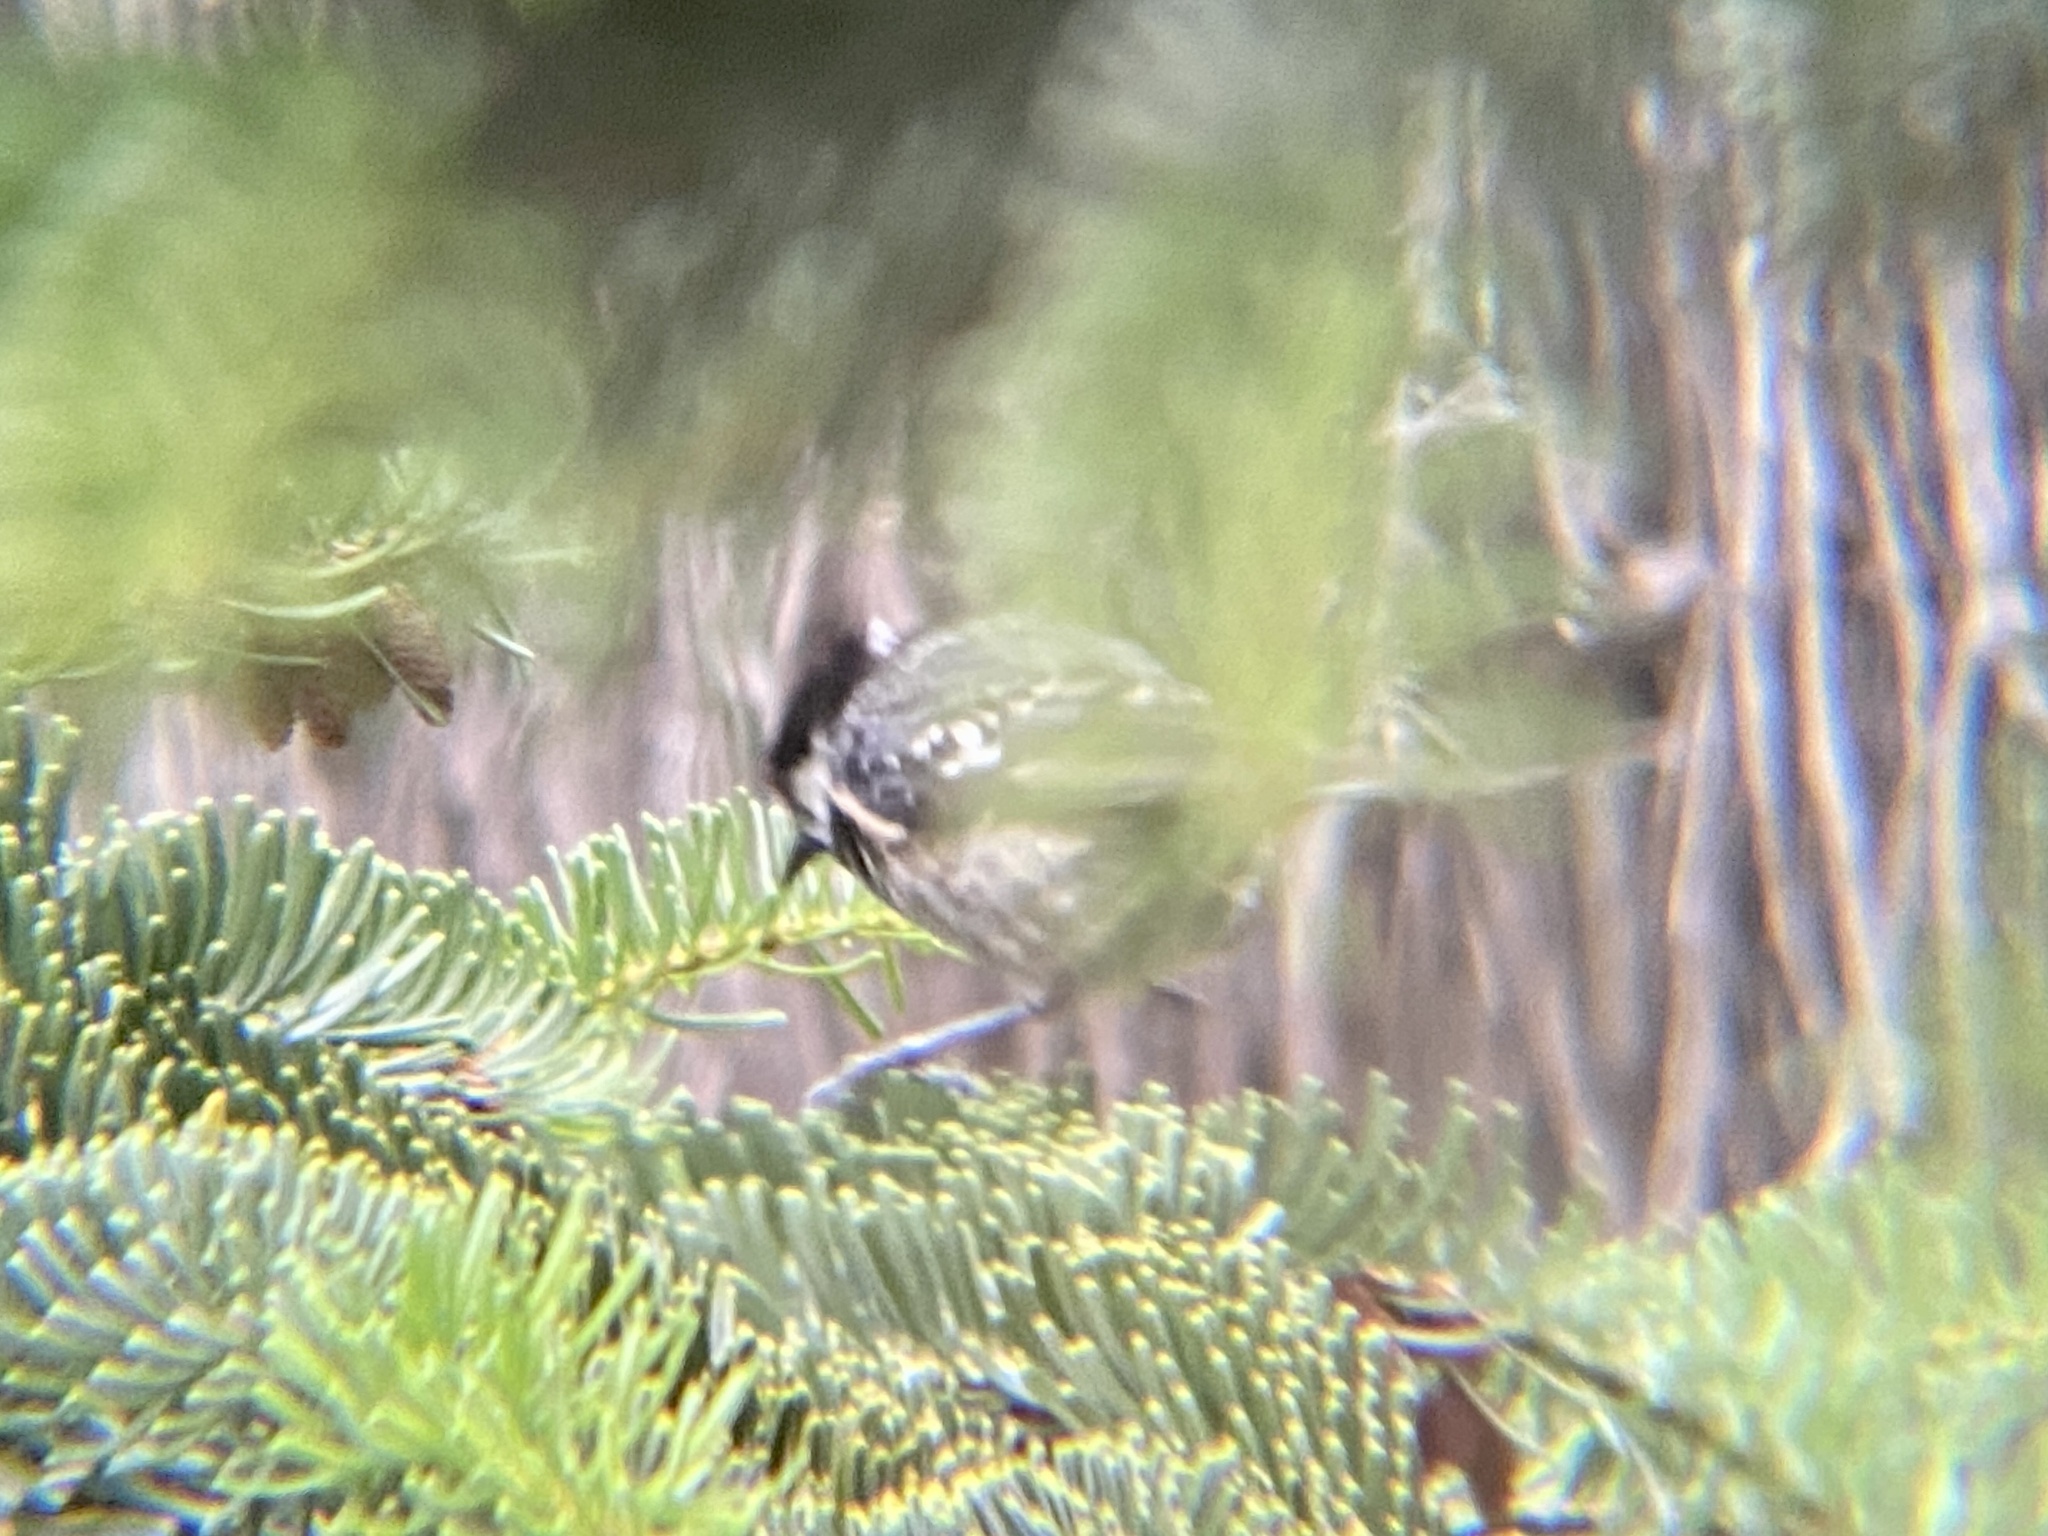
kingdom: Animalia
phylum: Chordata
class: Aves
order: Passeriformes
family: Paridae
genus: Periparus
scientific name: Periparus ater
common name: Coal tit
